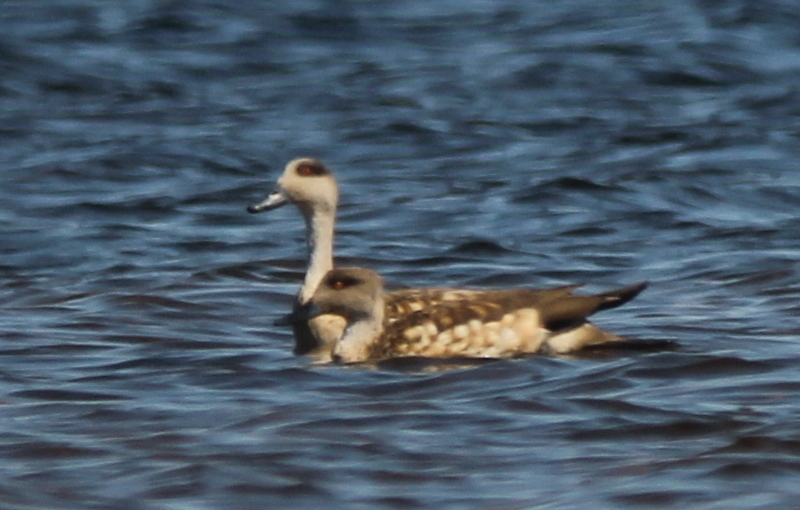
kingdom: Animalia
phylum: Chordata
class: Aves
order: Anseriformes
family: Anatidae
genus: Lophonetta
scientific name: Lophonetta specularioides
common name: Crested duck
